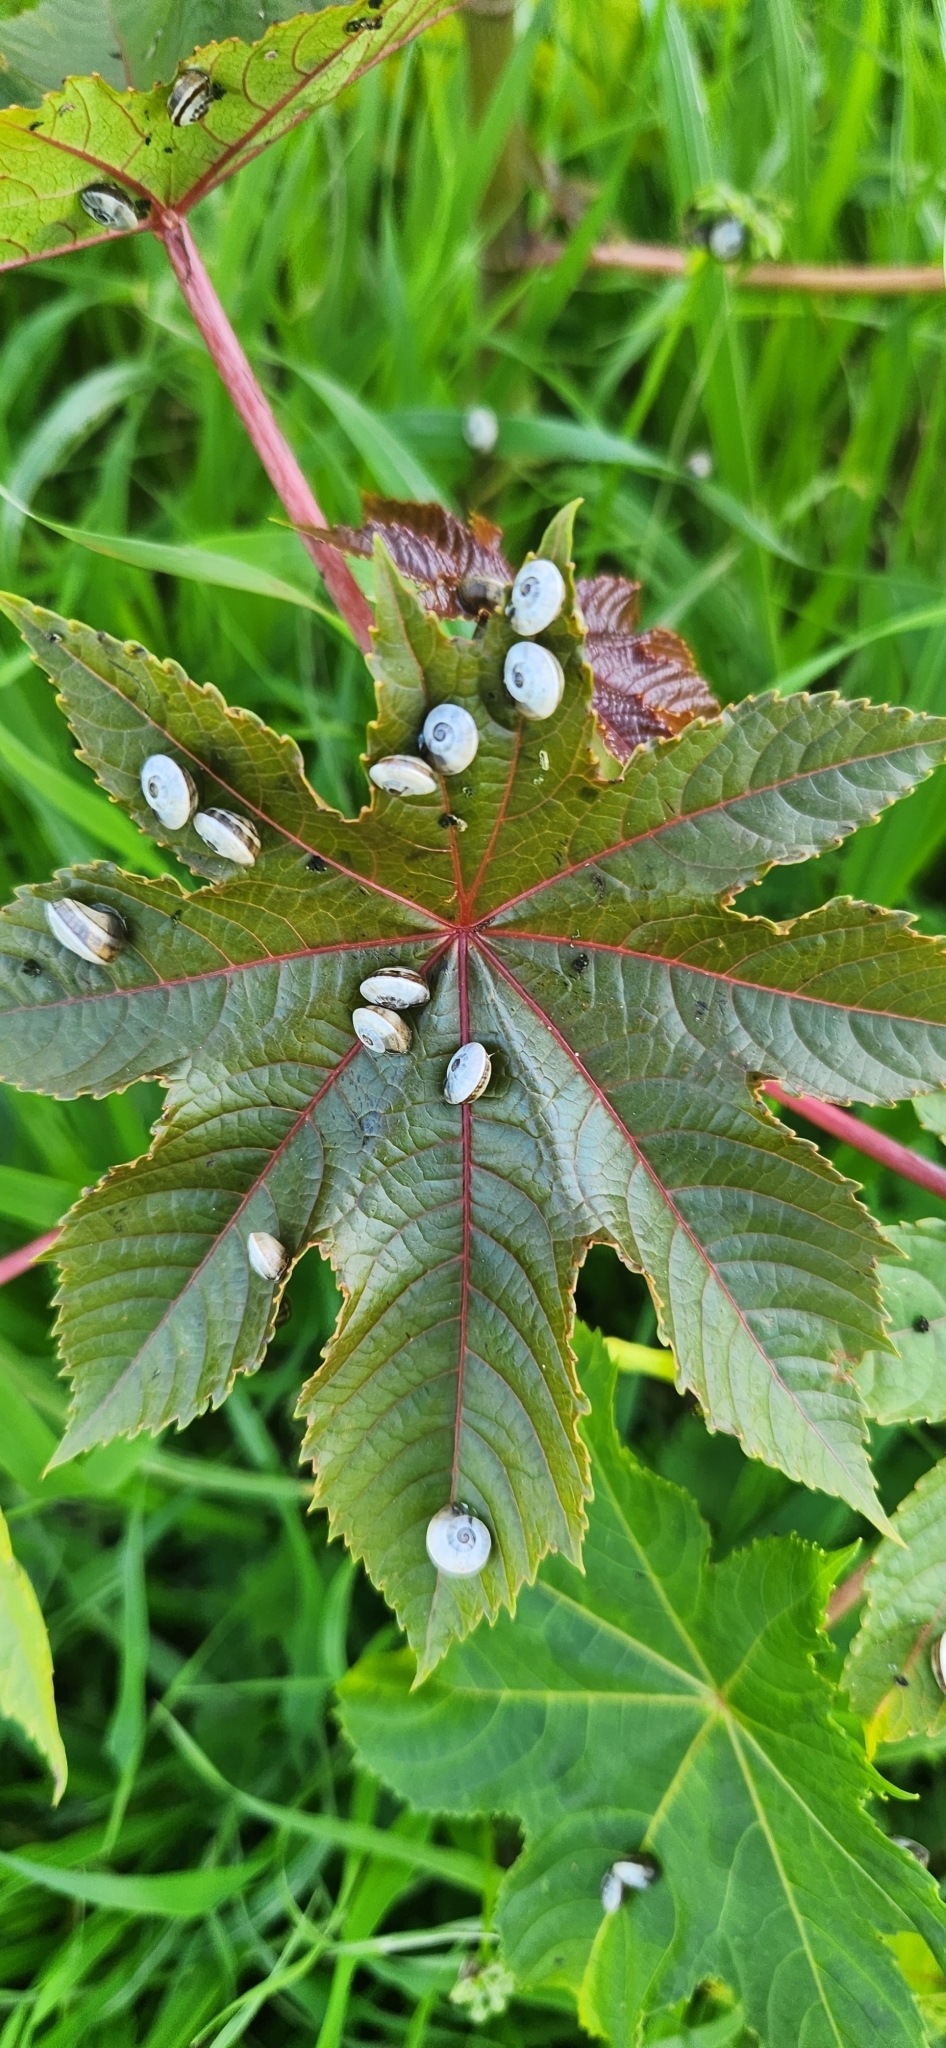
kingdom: Animalia
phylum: Mollusca
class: Gastropoda
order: Stylommatophora
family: Helicidae
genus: Theba
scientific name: Theba pisana
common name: White snail
